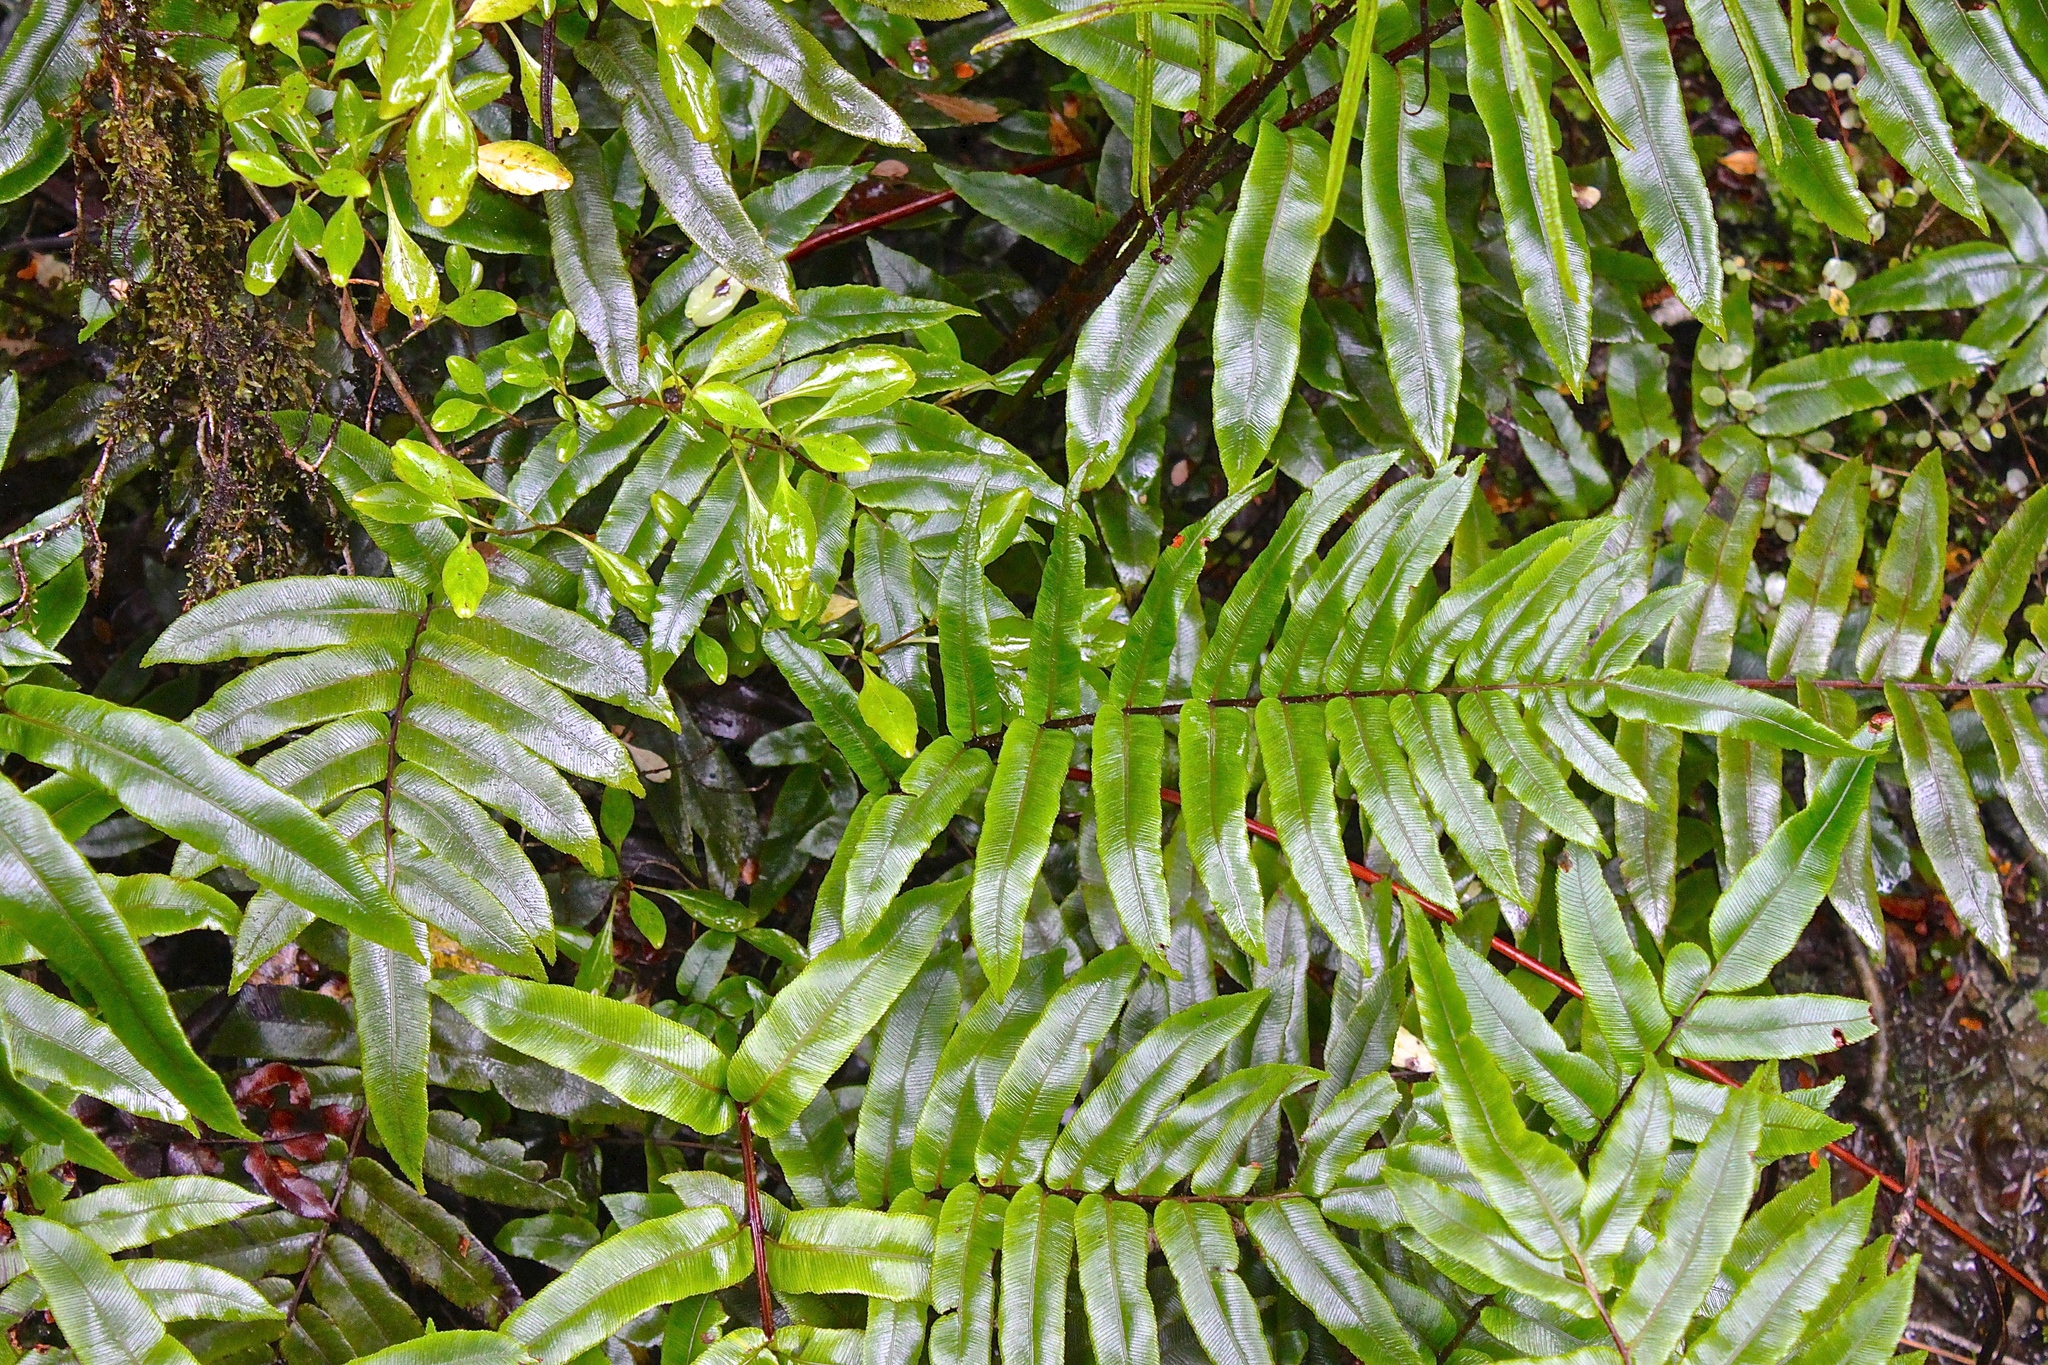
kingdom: Plantae
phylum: Tracheophyta
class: Polypodiopsida
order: Polypodiales
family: Blechnaceae
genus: Parablechnum
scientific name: Parablechnum procerum
